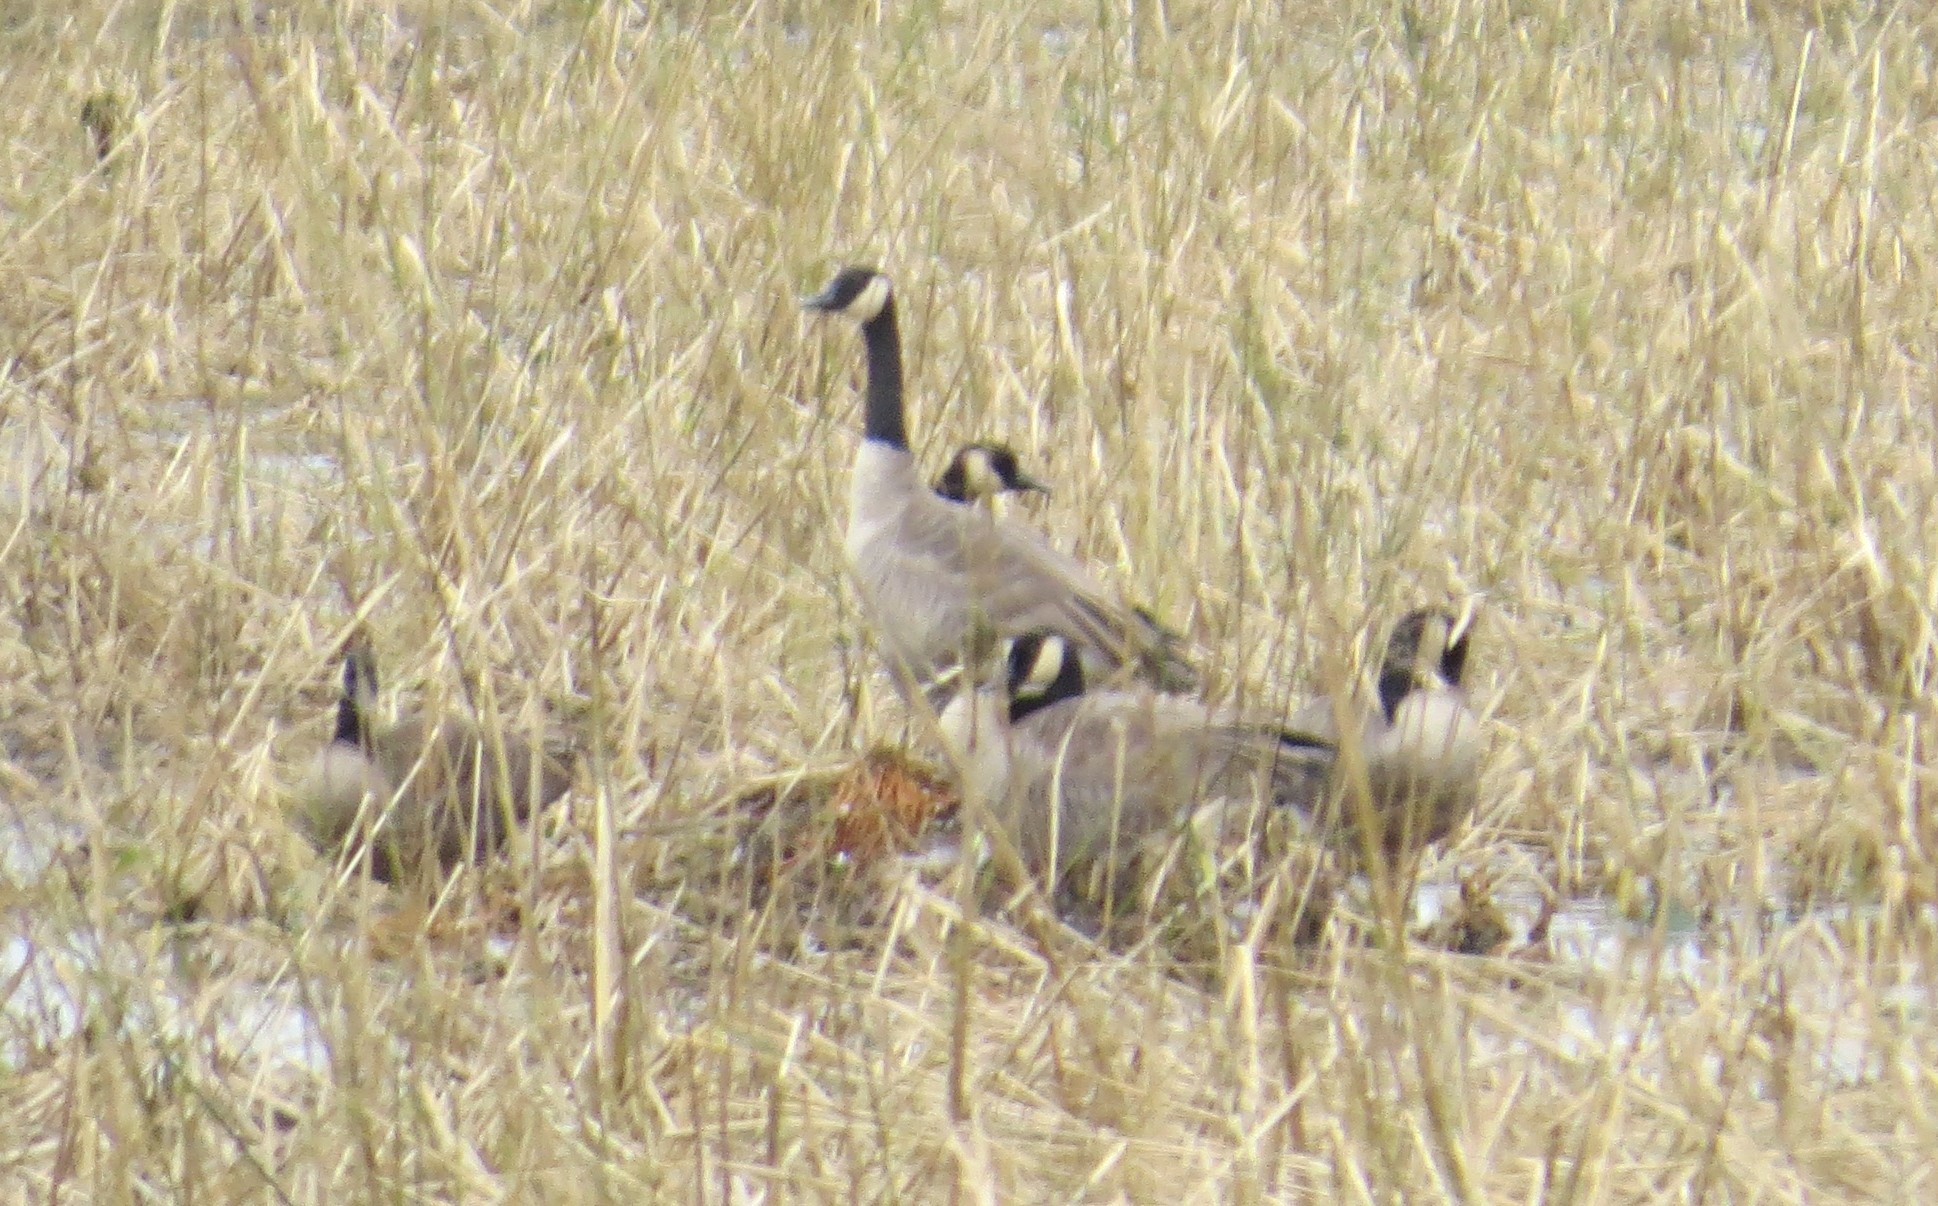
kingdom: Animalia
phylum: Chordata
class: Aves
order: Anseriformes
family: Anatidae
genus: Branta
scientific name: Branta canadensis
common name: Canada goose
